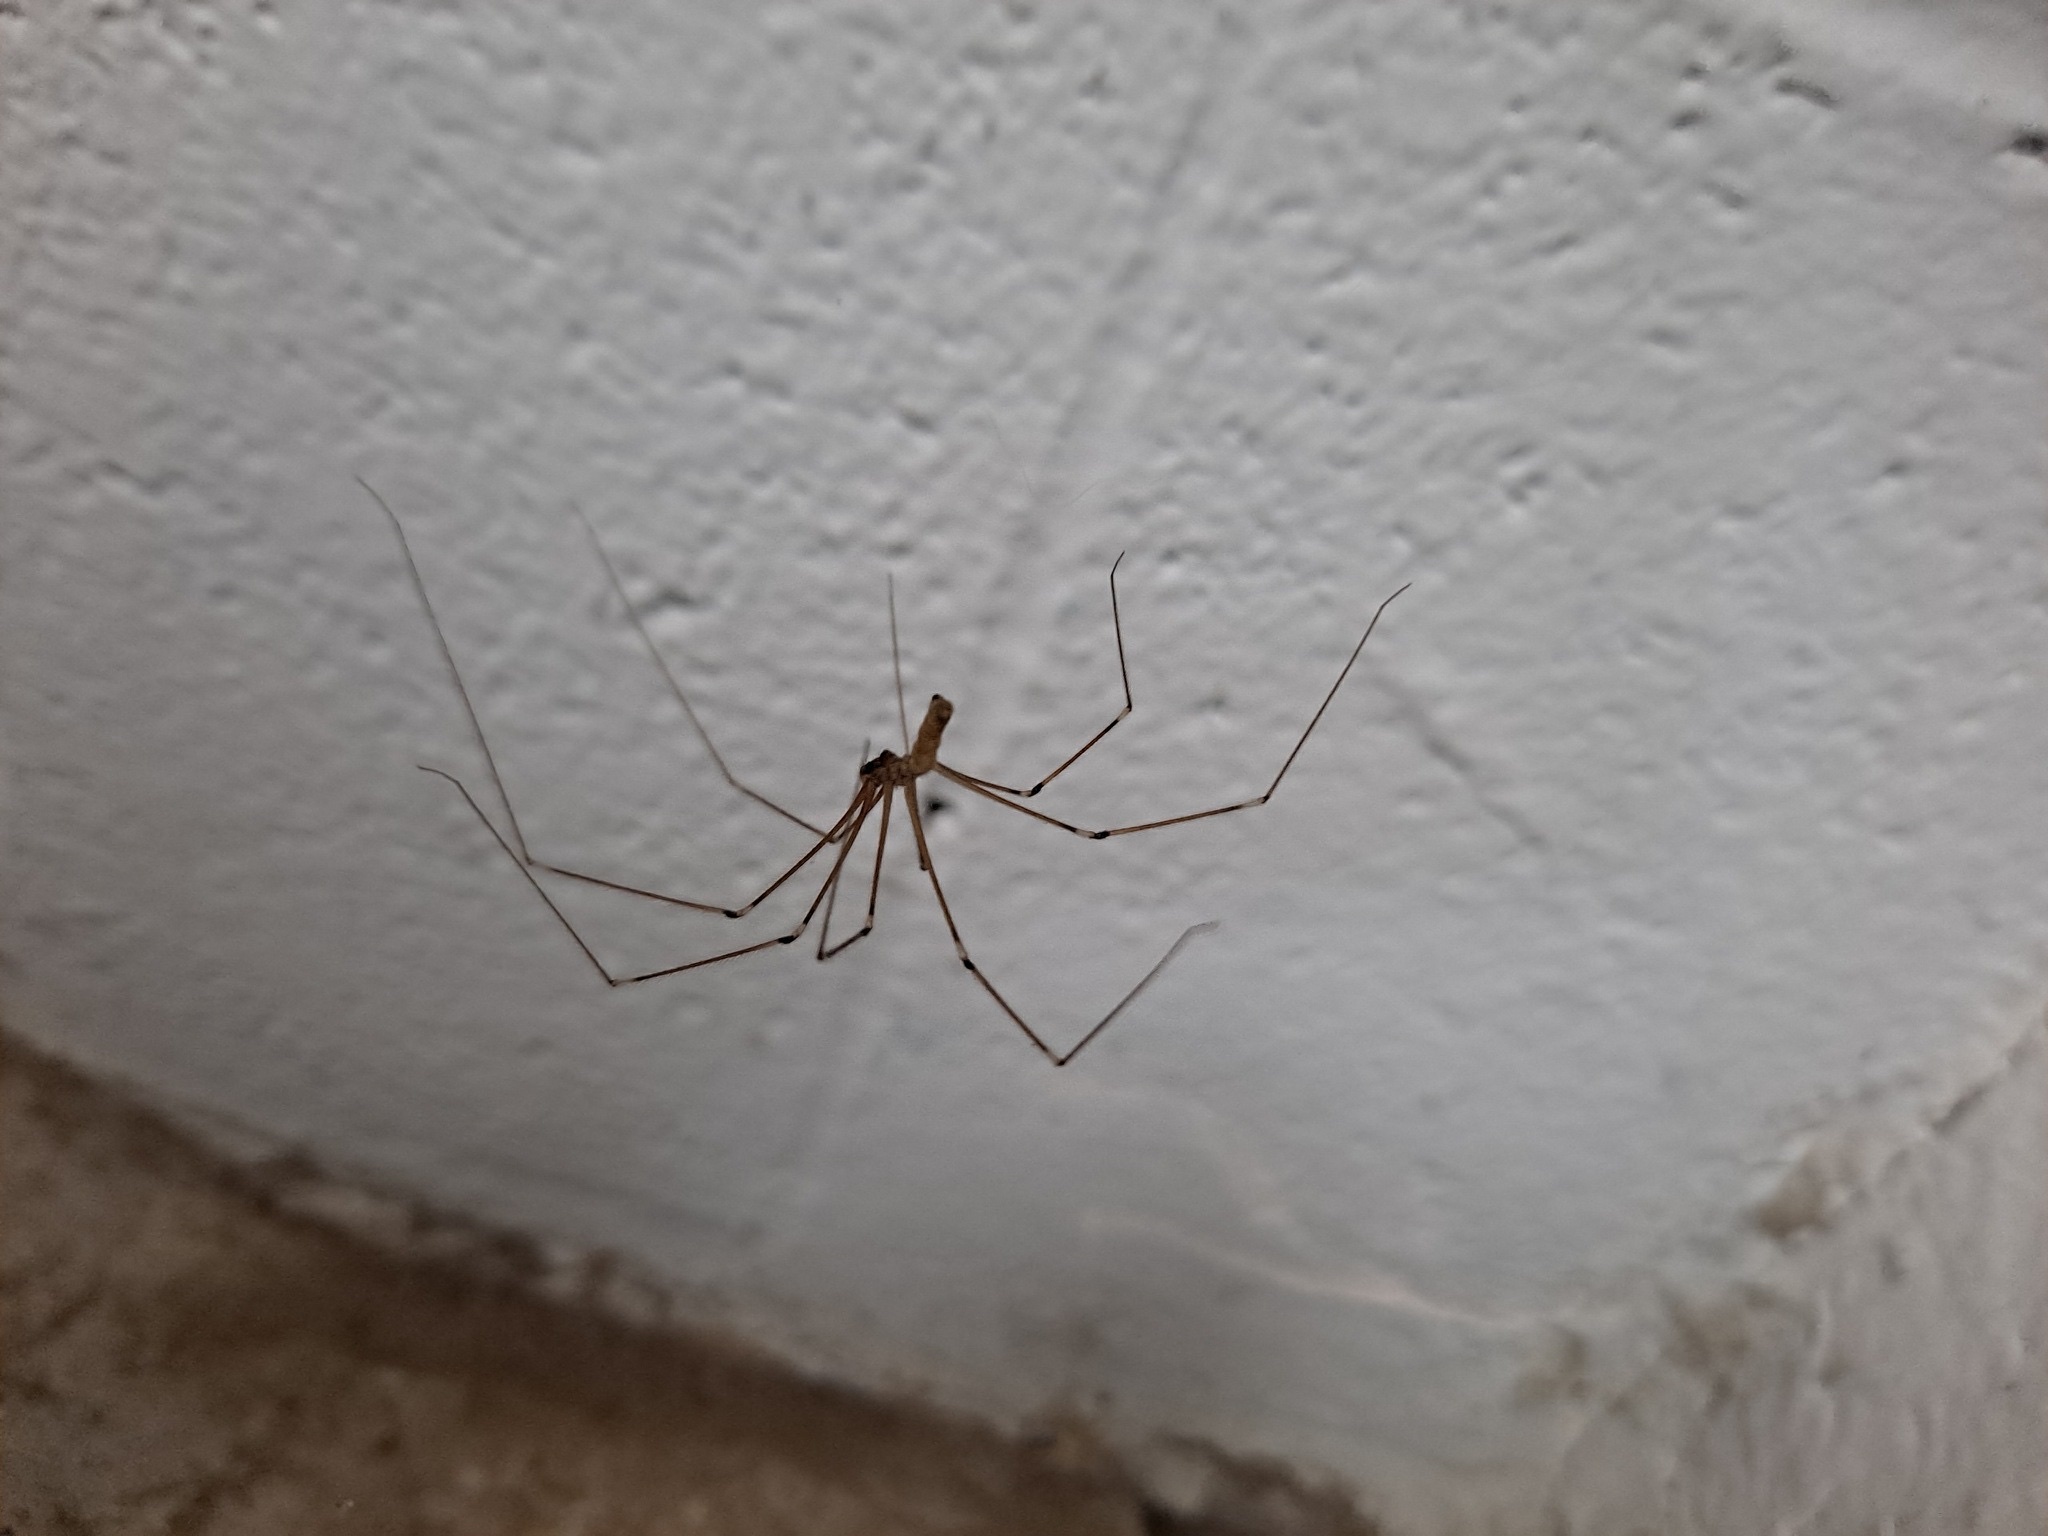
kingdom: Animalia
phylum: Arthropoda
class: Arachnida
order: Araneae
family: Pholcidae
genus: Pholcus
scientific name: Pholcus phalangioides
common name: Longbodied cellar spider
